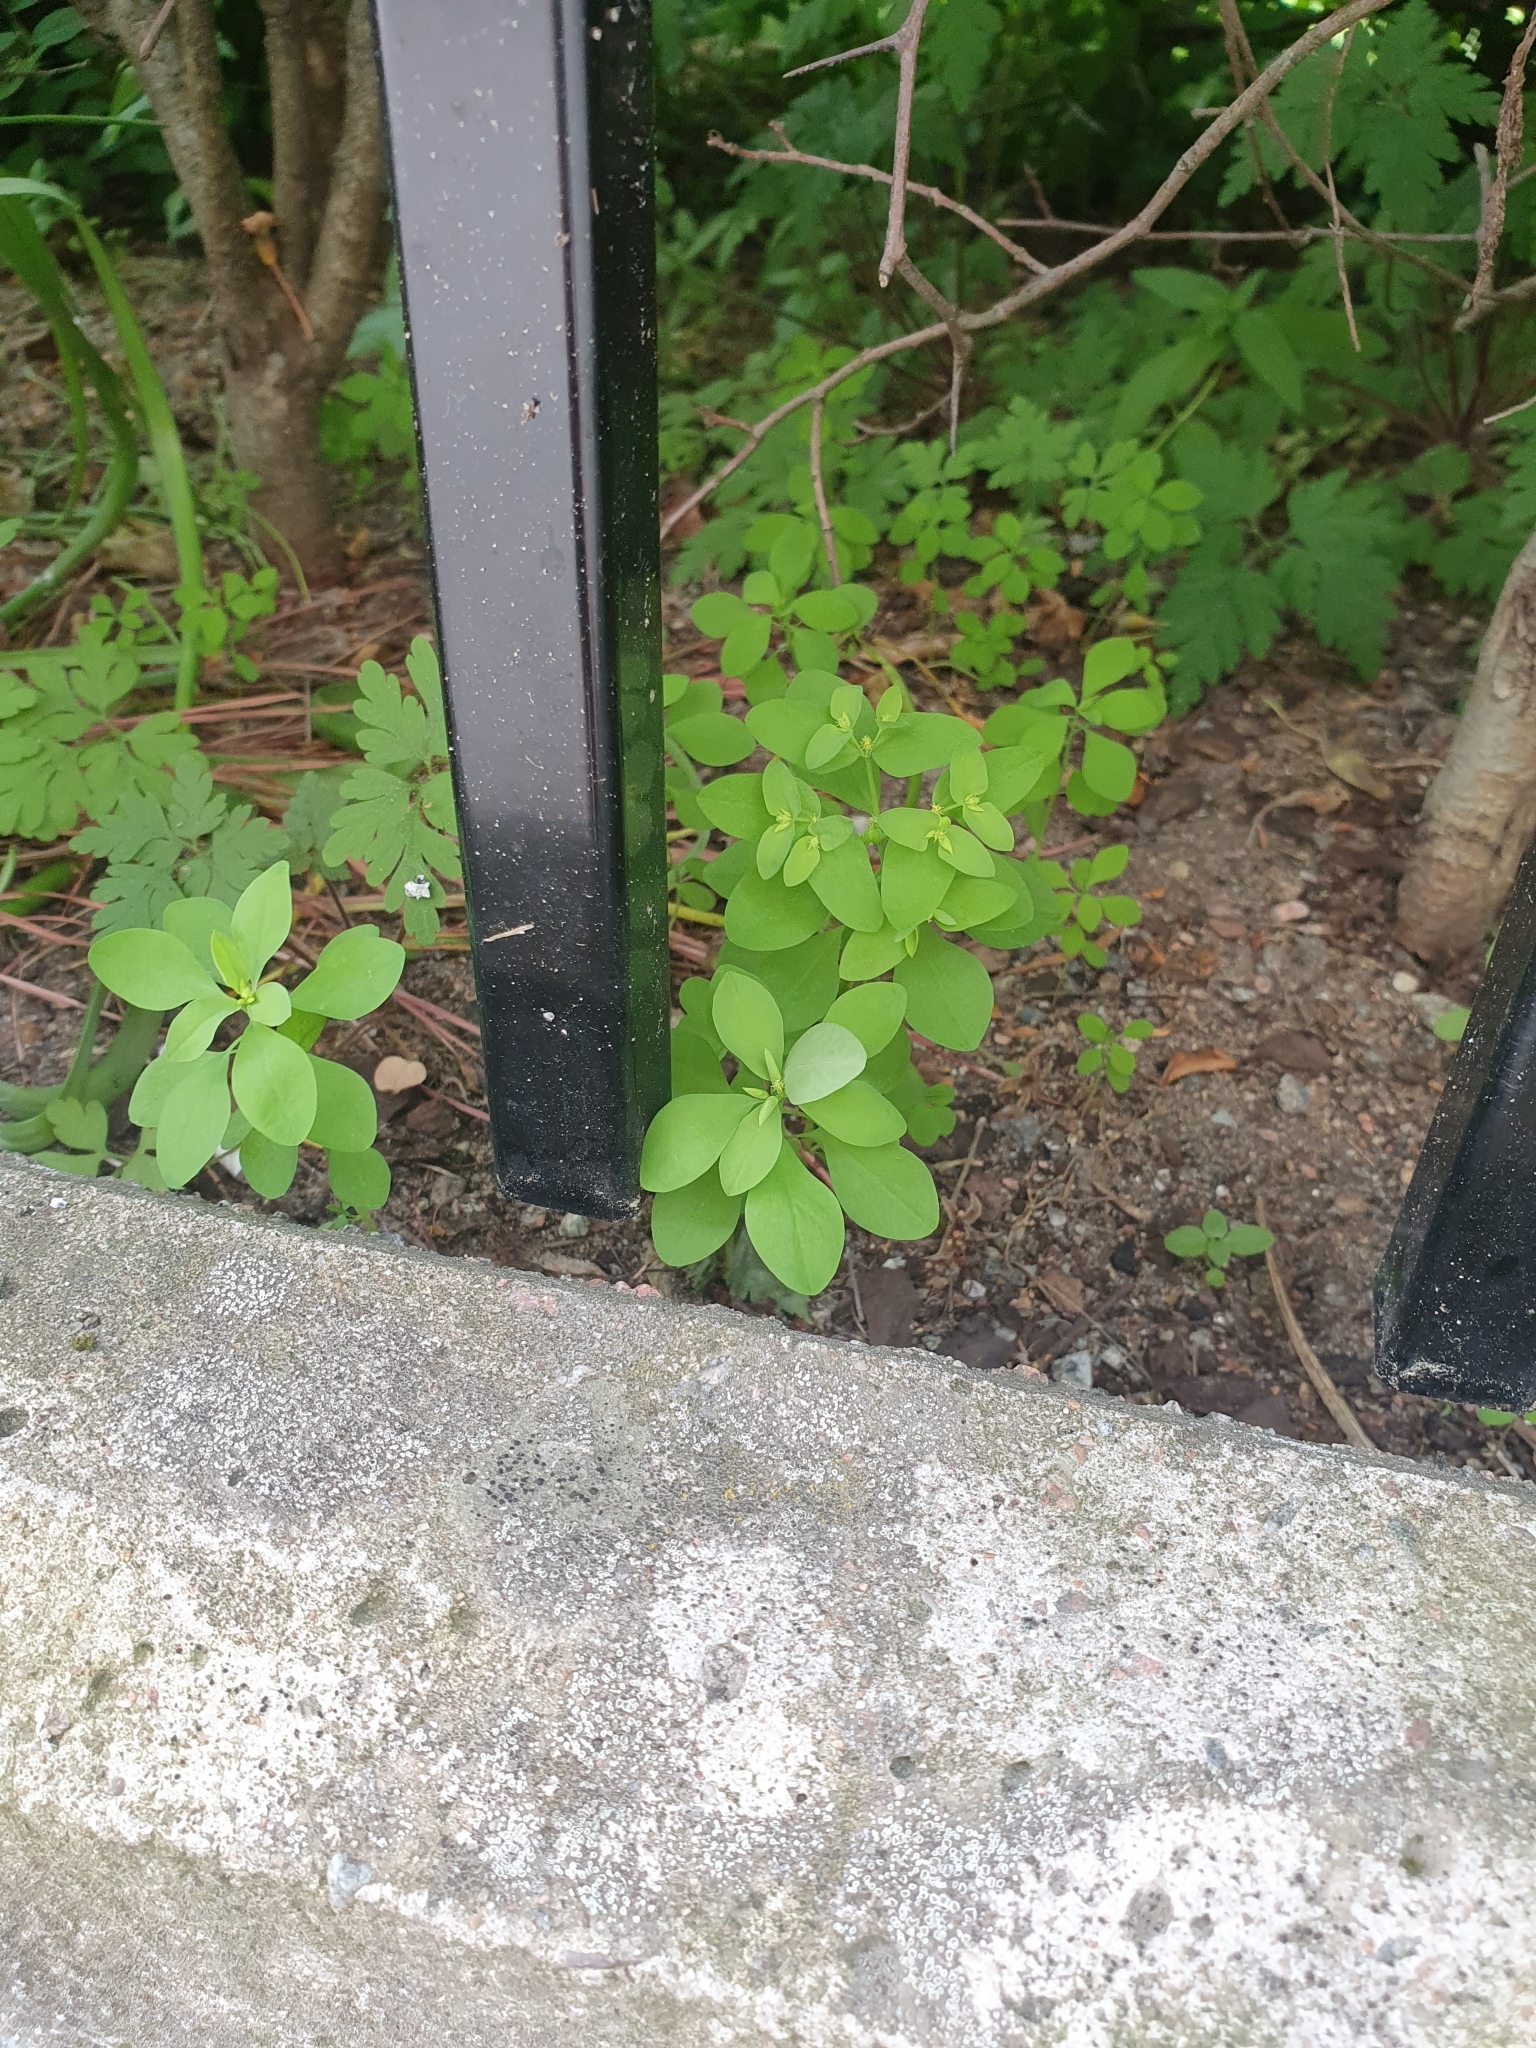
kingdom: Plantae
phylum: Tracheophyta
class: Magnoliopsida
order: Malpighiales
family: Euphorbiaceae
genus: Euphorbia
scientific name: Euphorbia peplus
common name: Petty spurge
